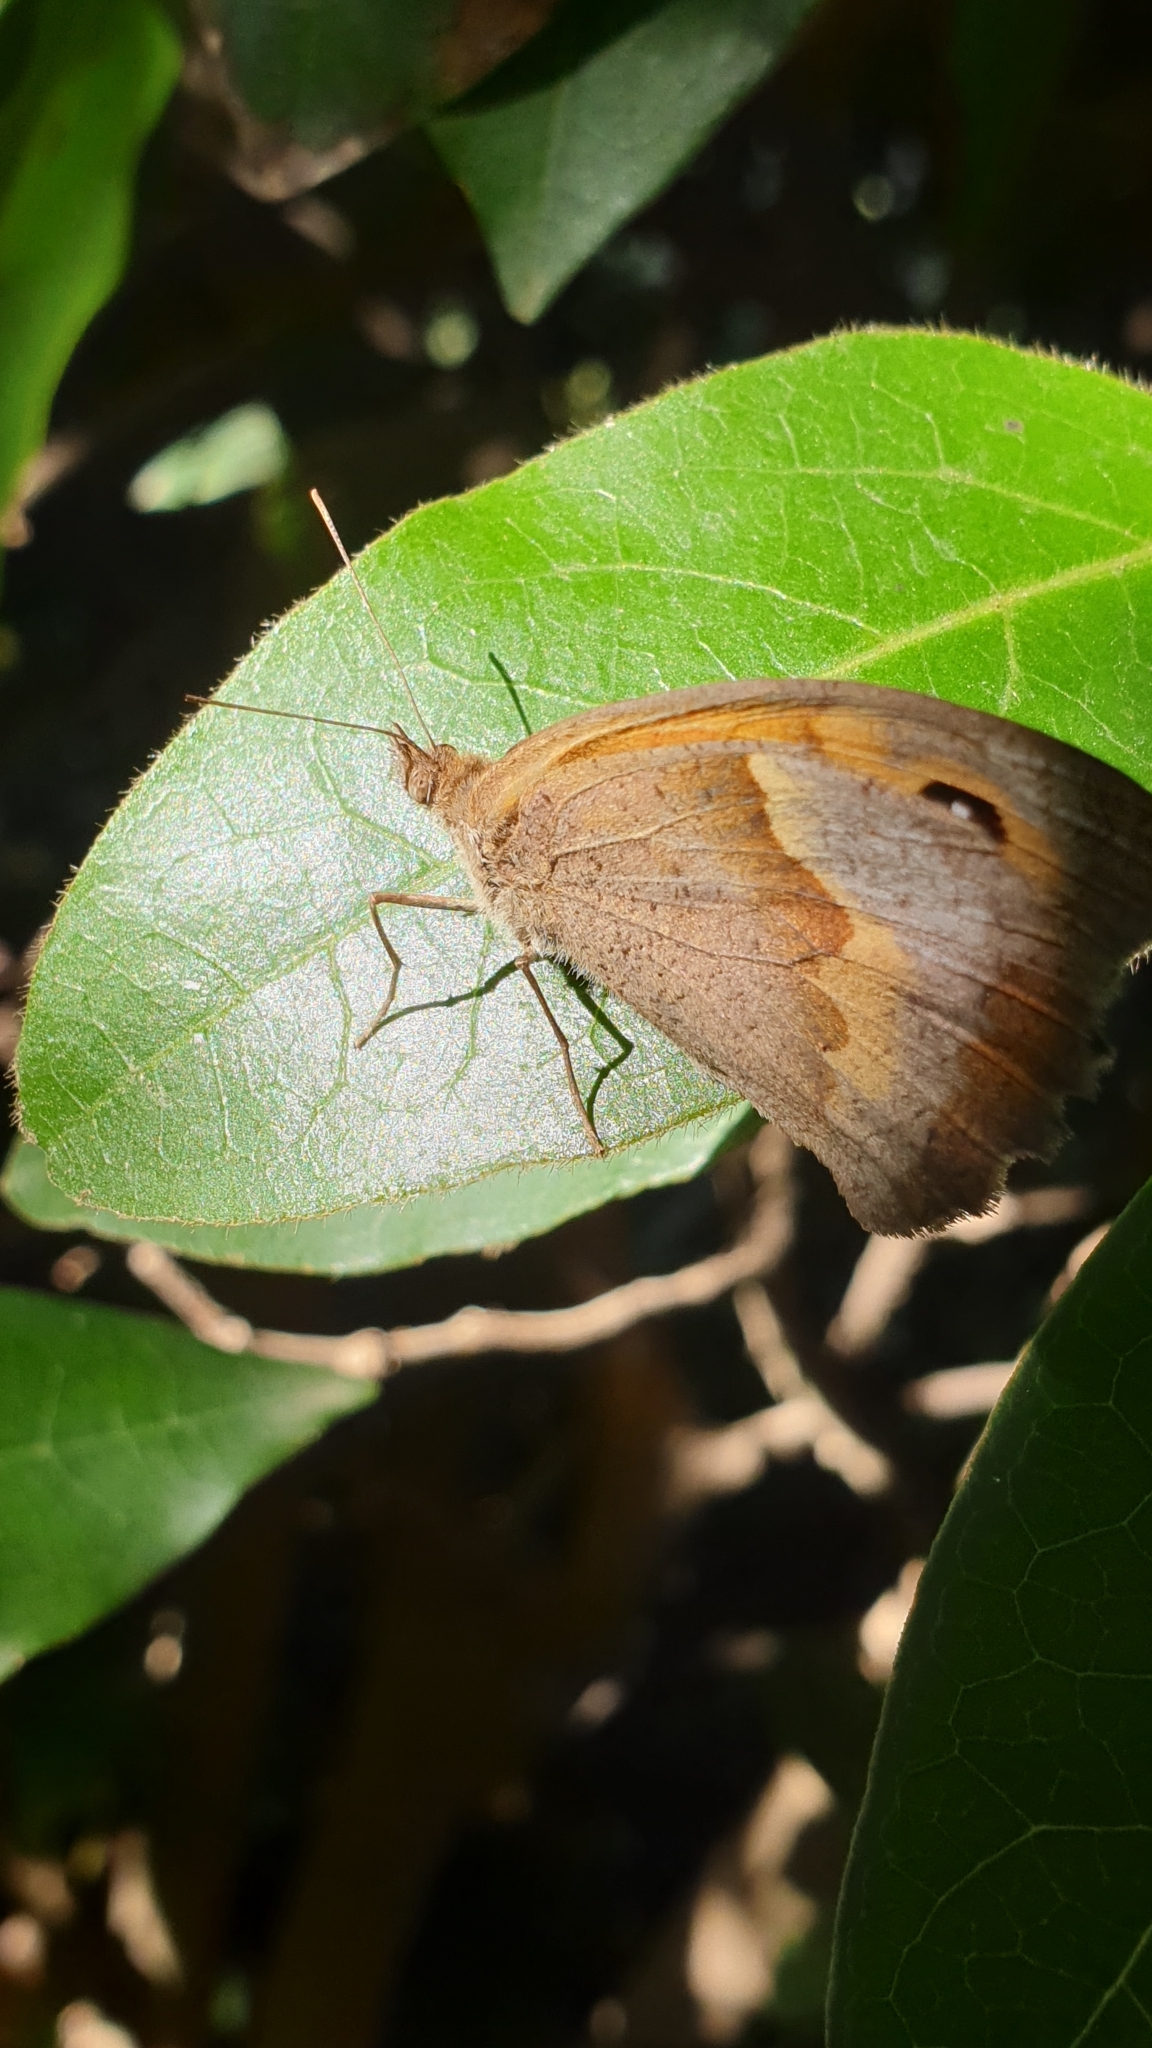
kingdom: Animalia
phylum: Arthropoda
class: Insecta
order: Lepidoptera
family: Nymphalidae
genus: Maniola
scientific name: Maniola jurtina
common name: Meadow brown
